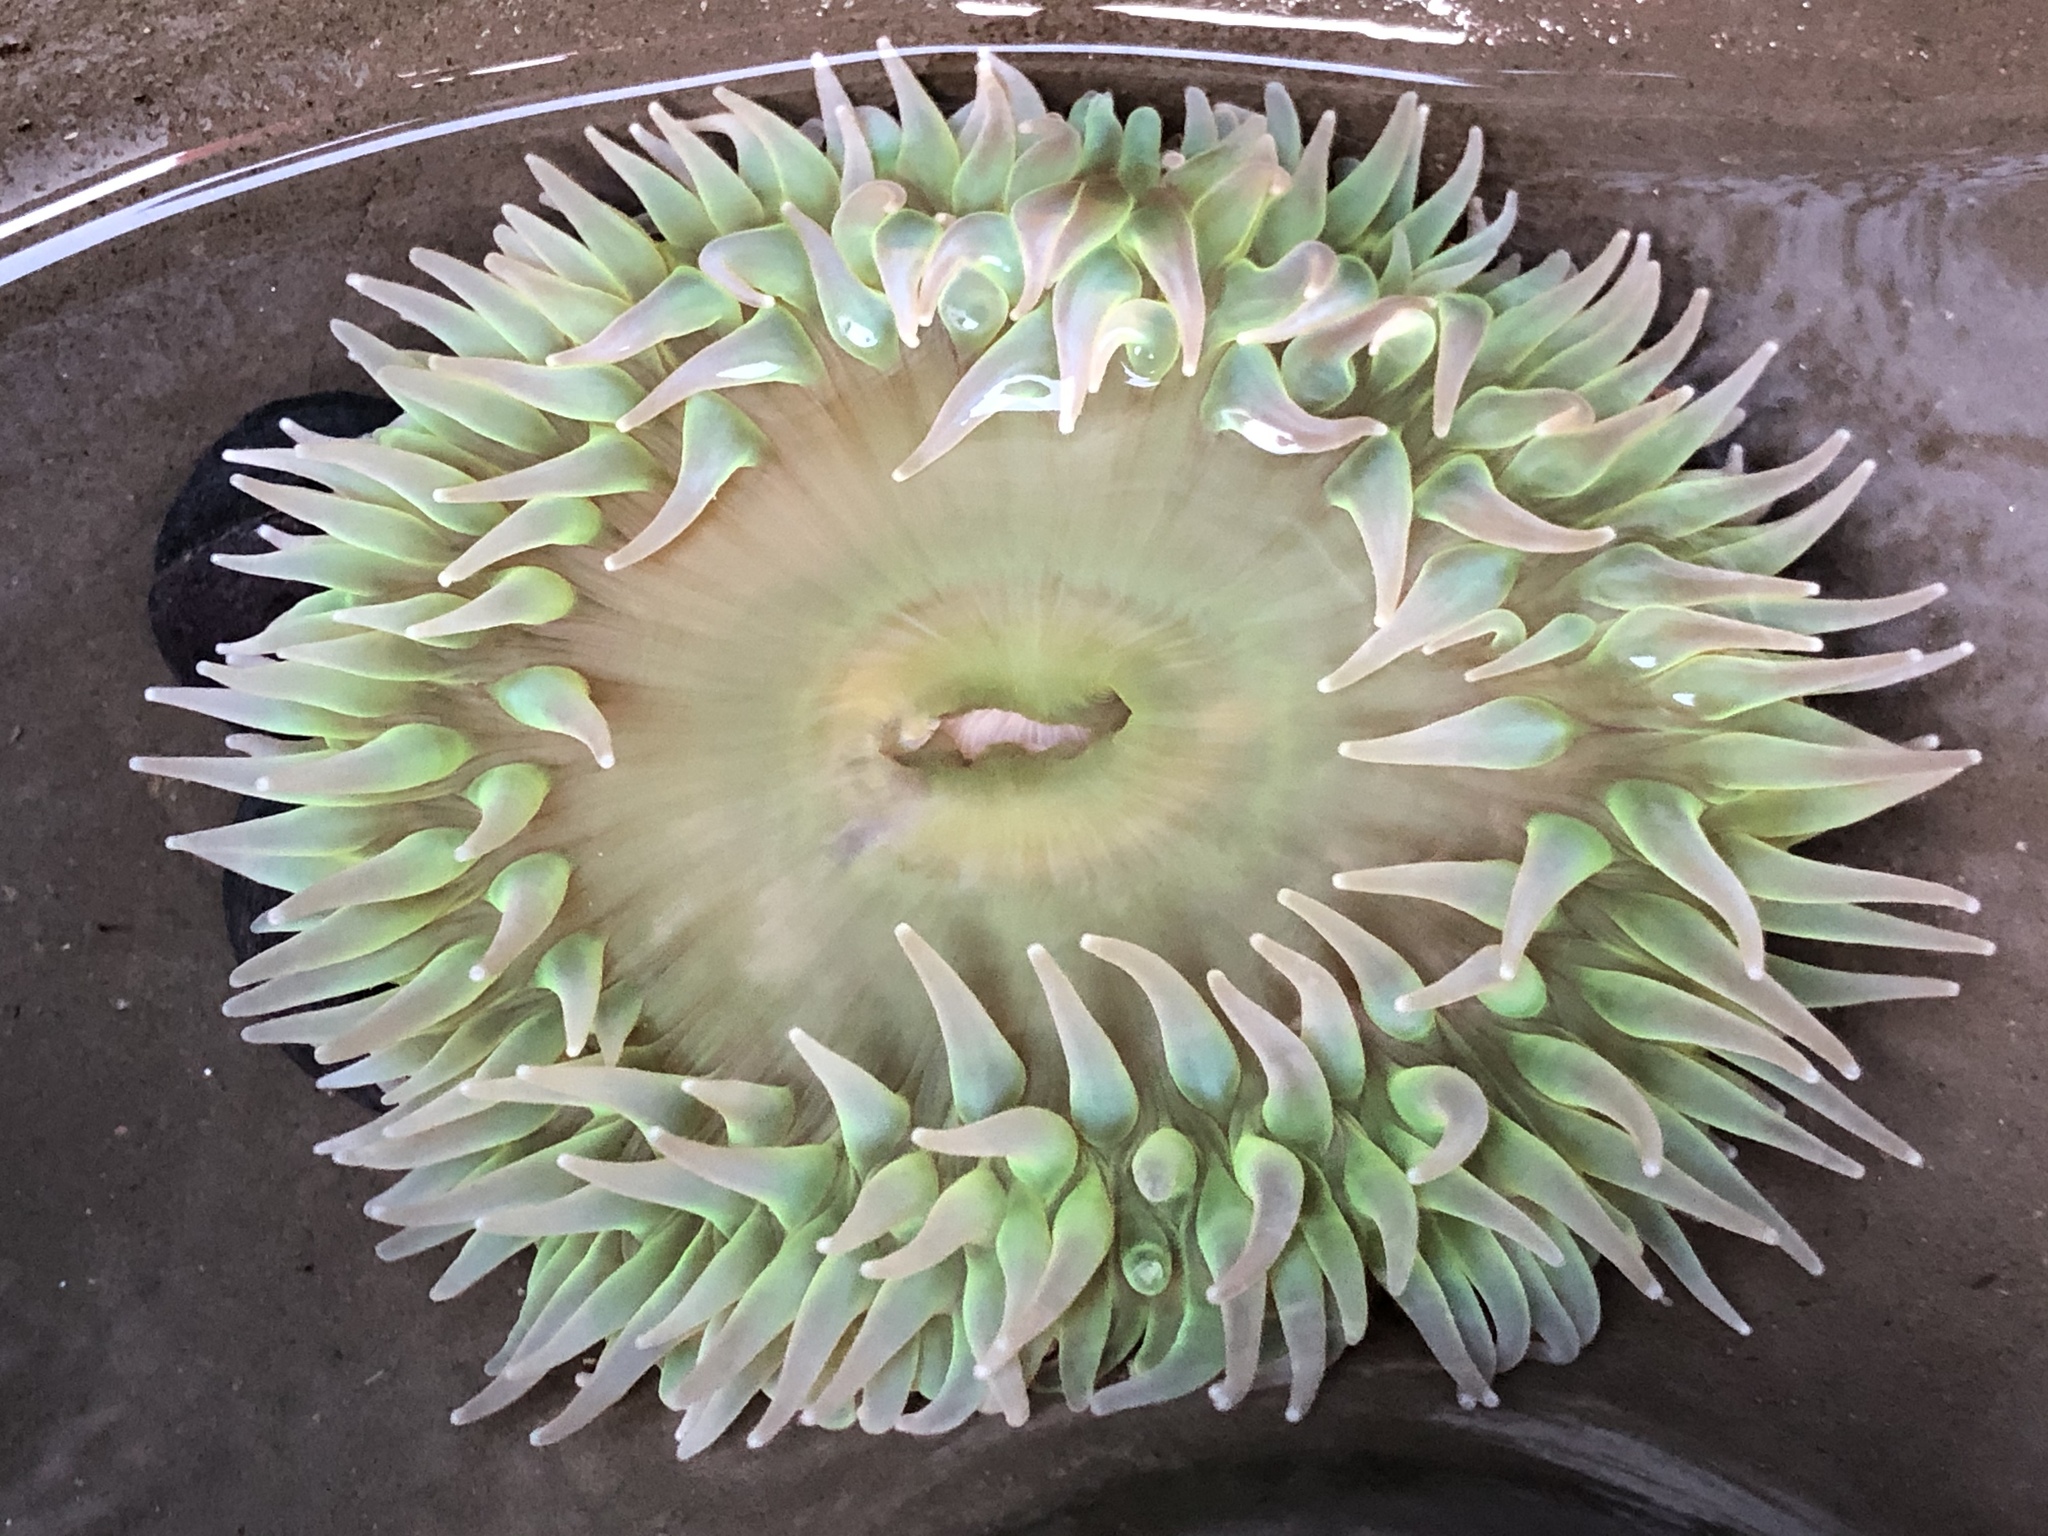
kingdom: Animalia
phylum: Cnidaria
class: Anthozoa
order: Actiniaria
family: Actiniidae
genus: Anthopleura
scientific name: Anthopleura xanthogrammica
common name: Giant green anemone
